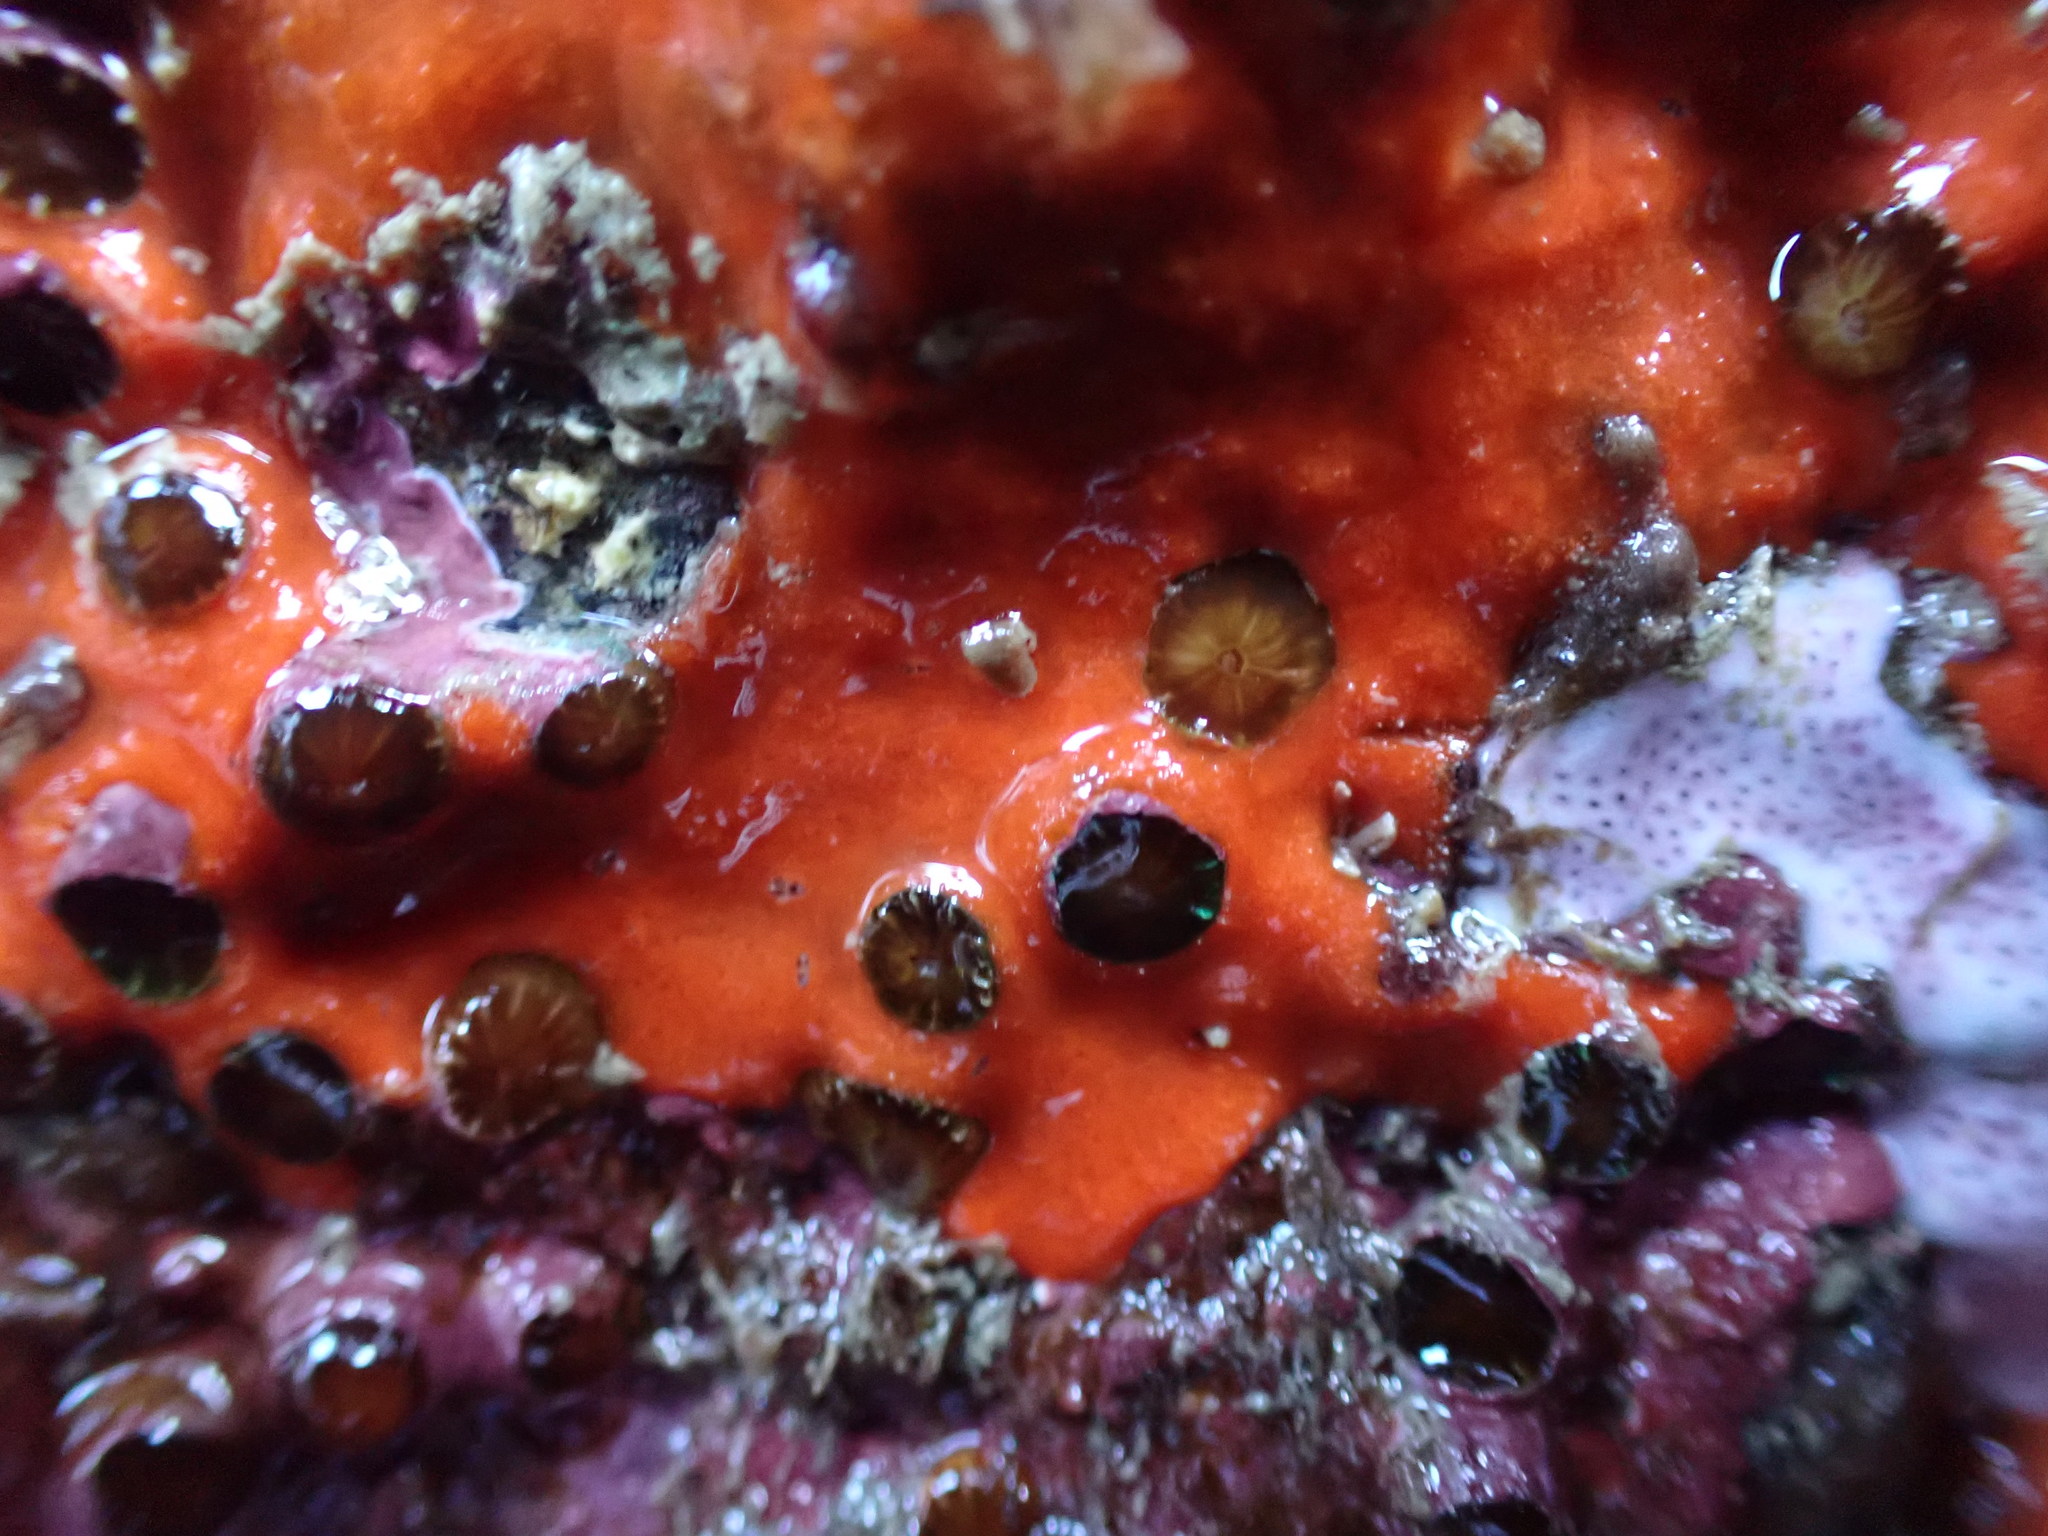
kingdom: Animalia
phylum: Cnidaria
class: Anthozoa
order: Scleractinia
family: Rhizangiidae
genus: Culicia
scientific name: Culicia rubeola
